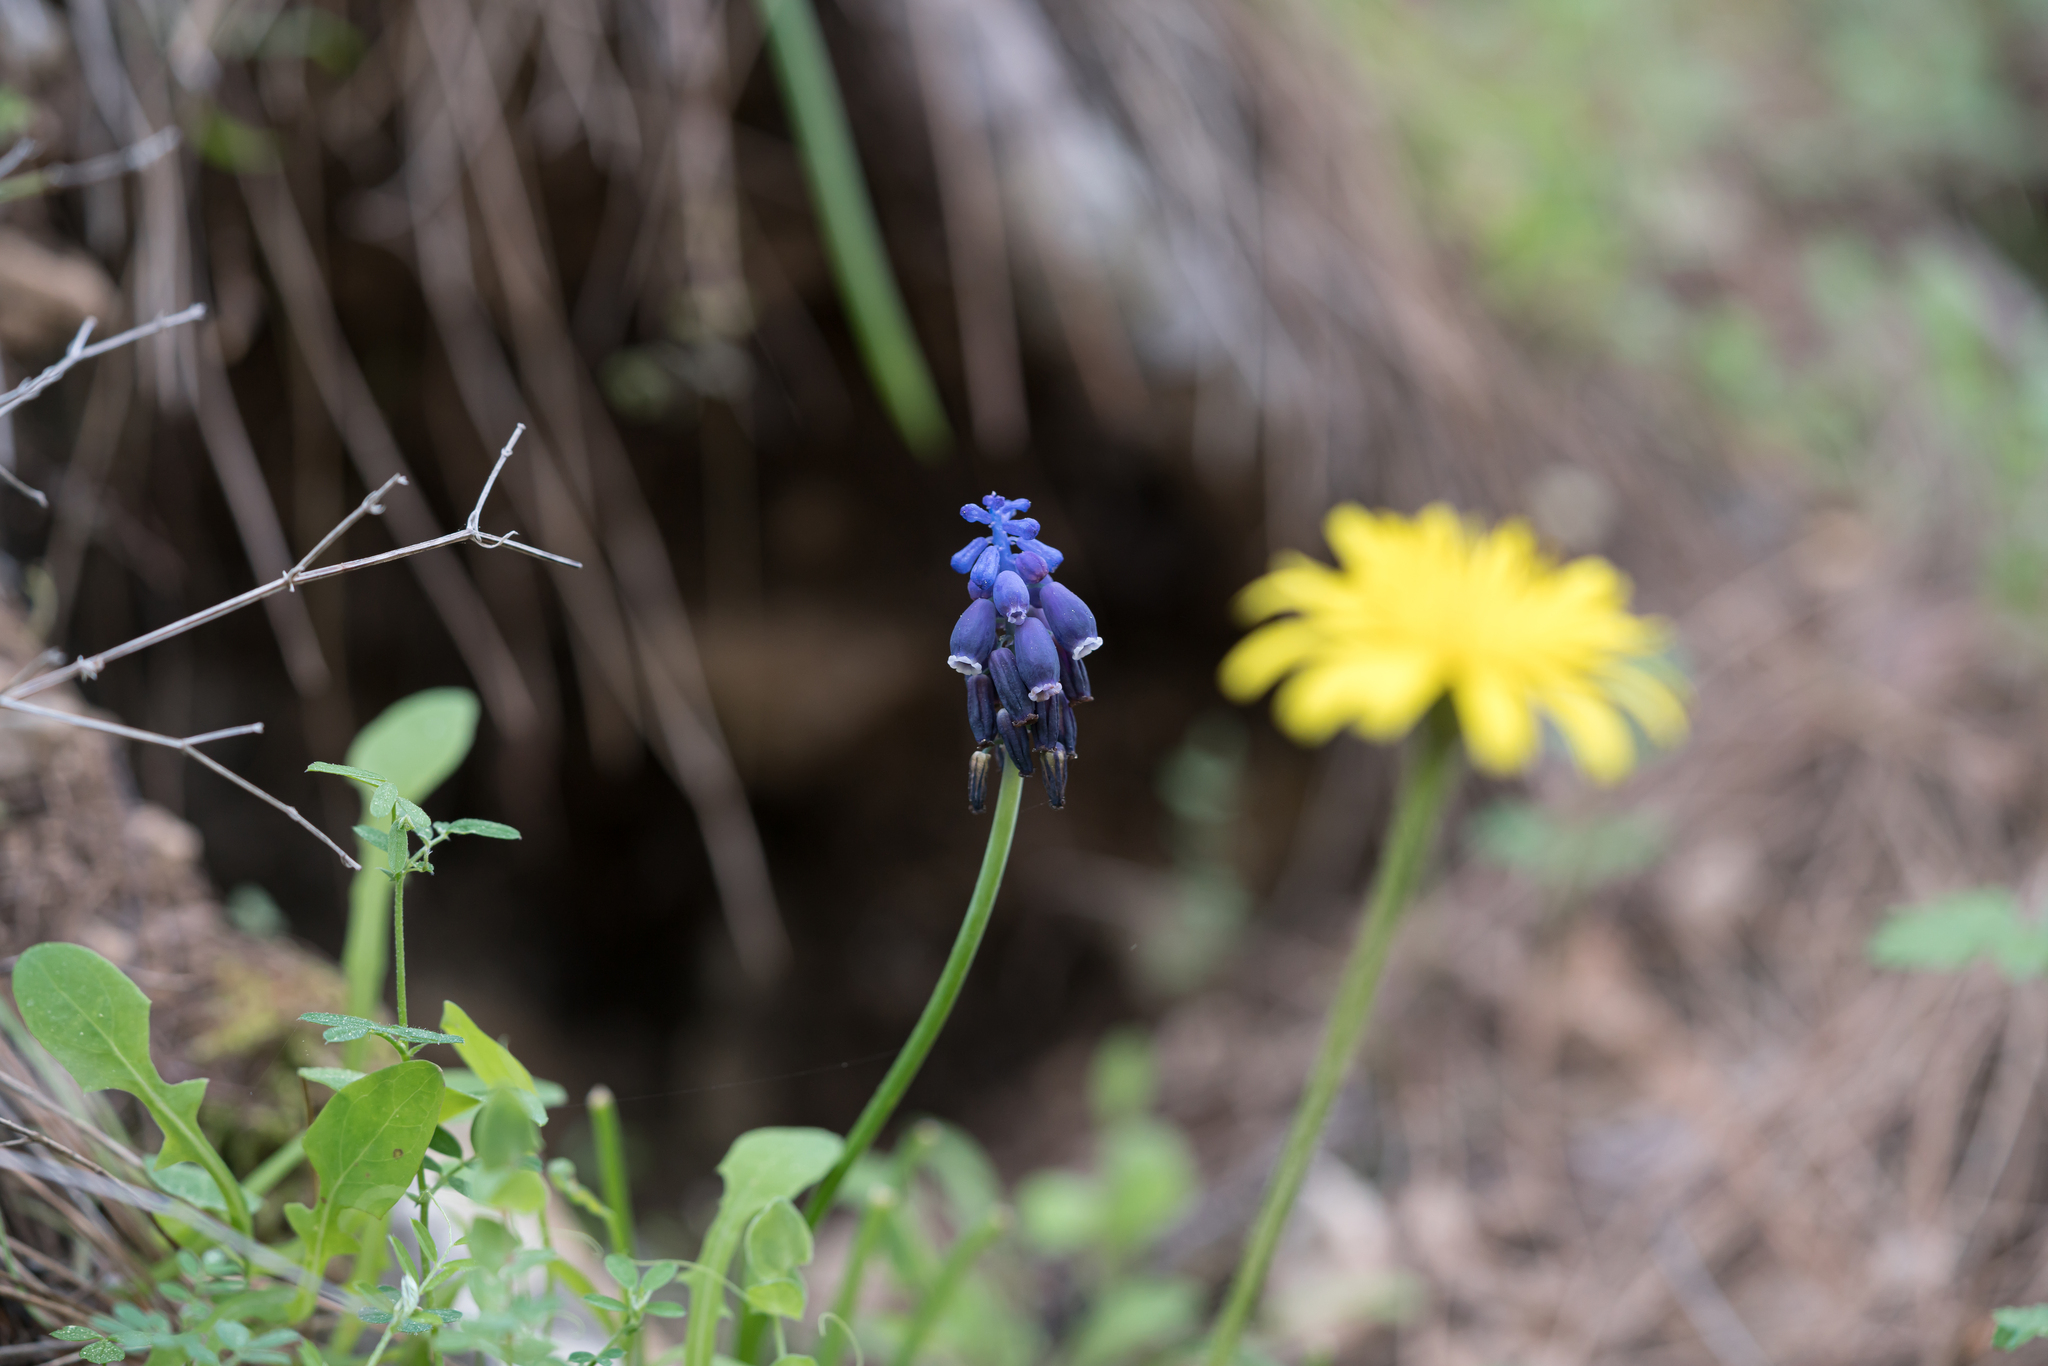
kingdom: Plantae
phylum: Tracheophyta
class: Liliopsida
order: Asparagales
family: Asparagaceae
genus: Muscari
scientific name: Muscari neglectum
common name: Grape-hyacinth
